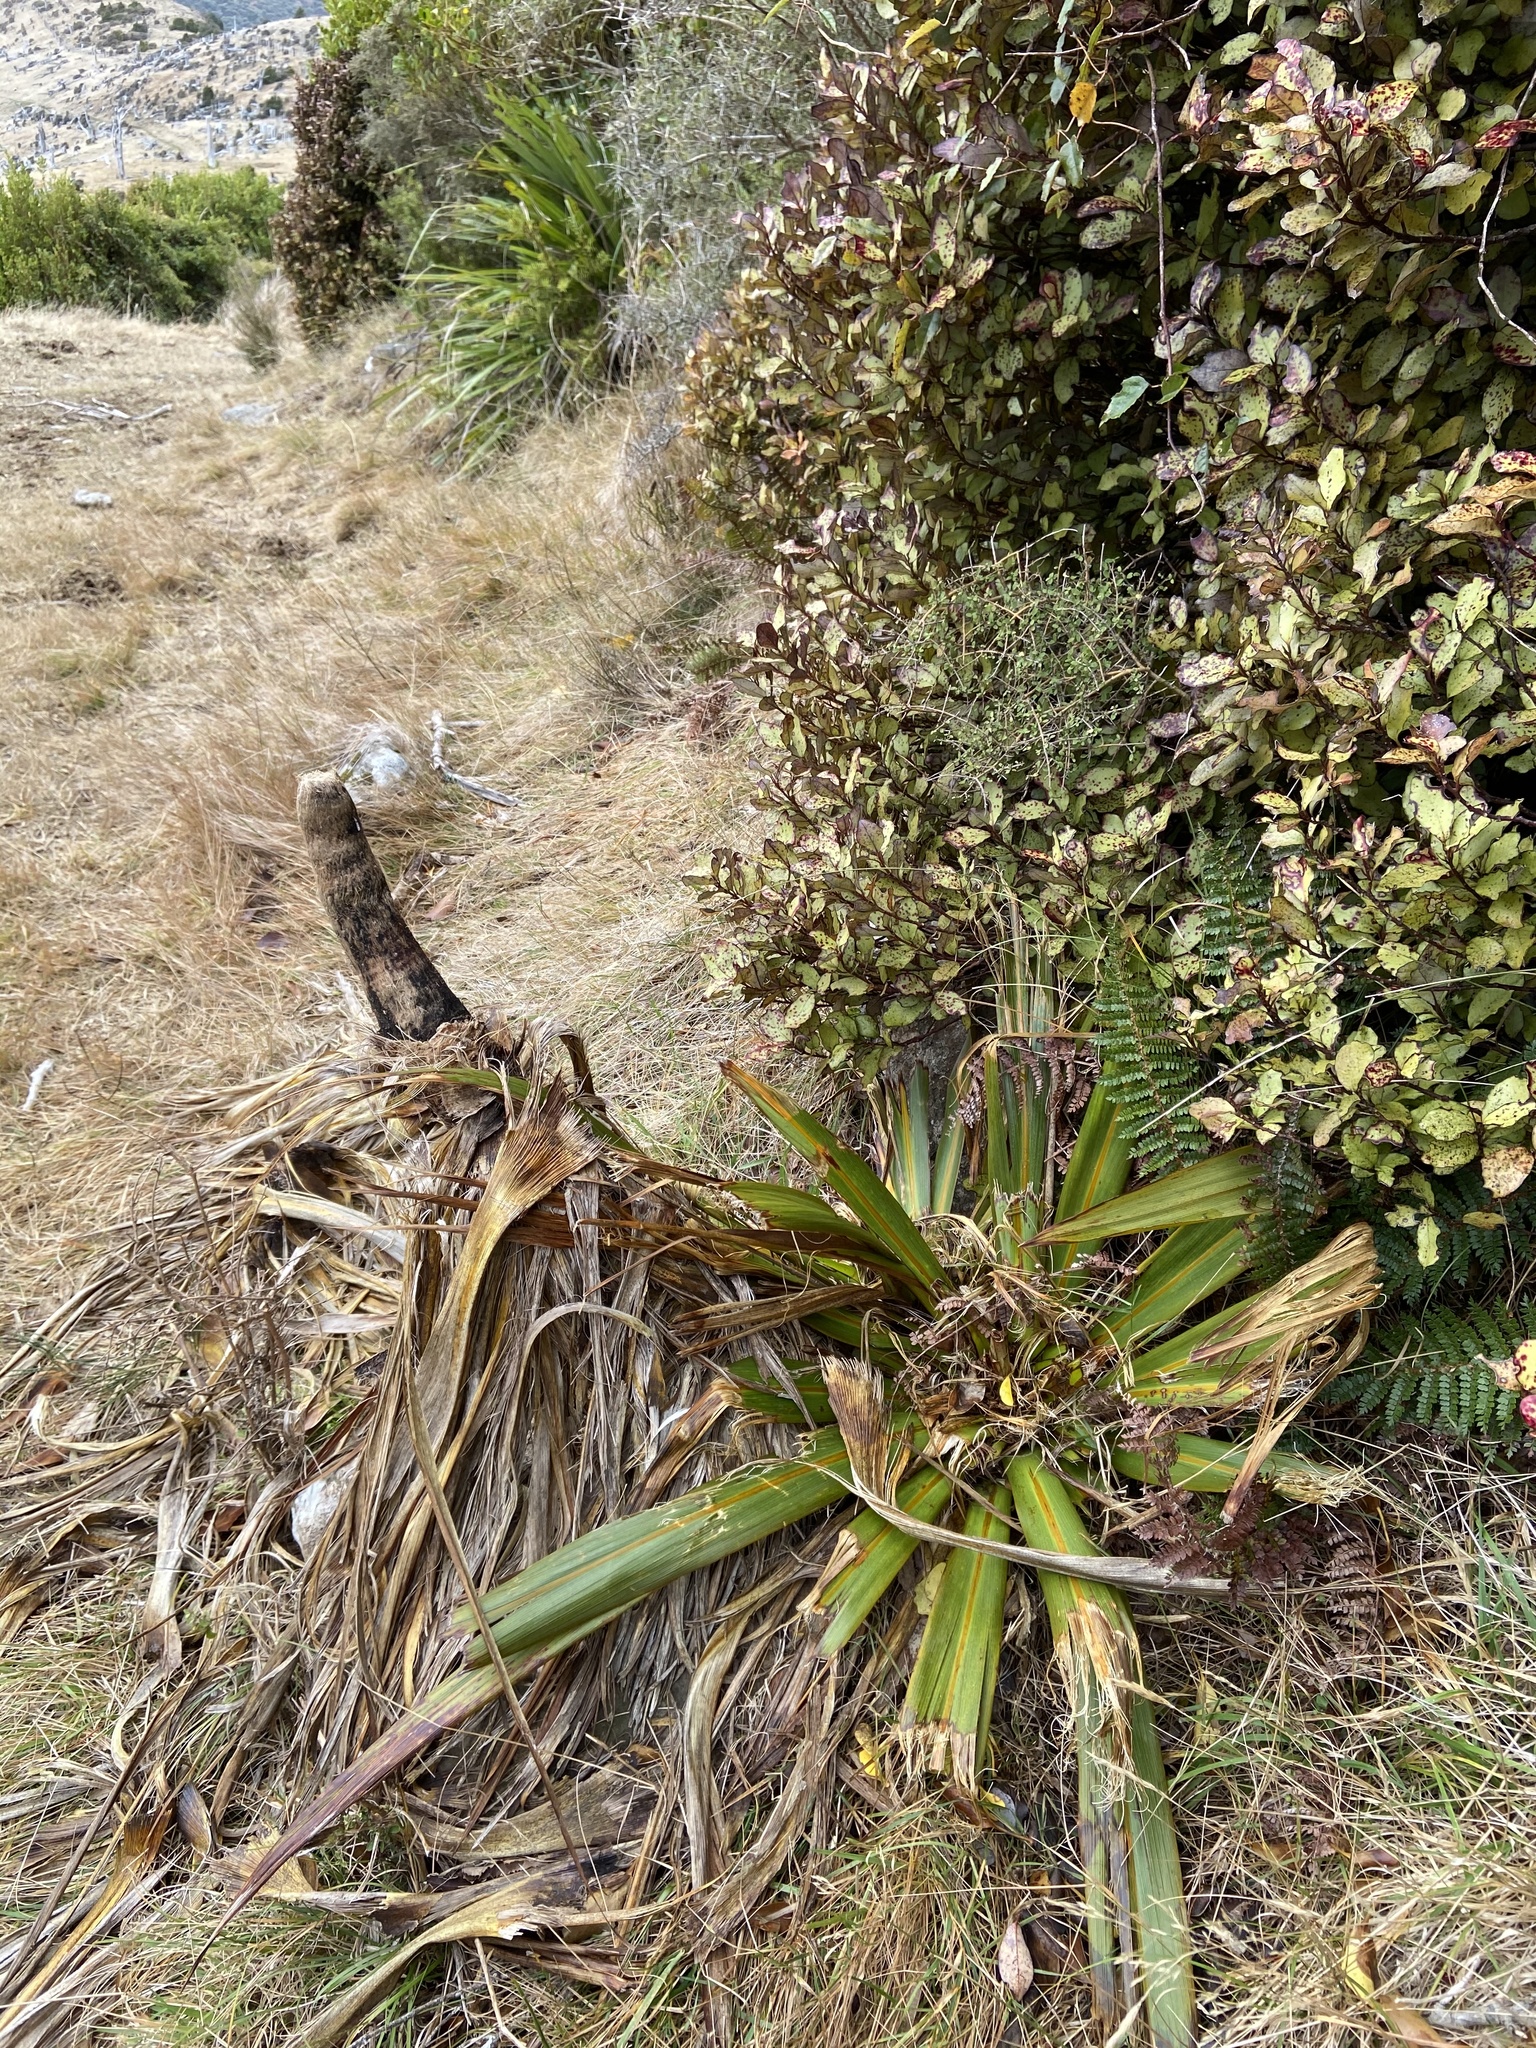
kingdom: Plantae
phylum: Tracheophyta
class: Liliopsida
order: Asparagales
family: Asparagaceae
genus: Cordyline
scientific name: Cordyline indivisa
